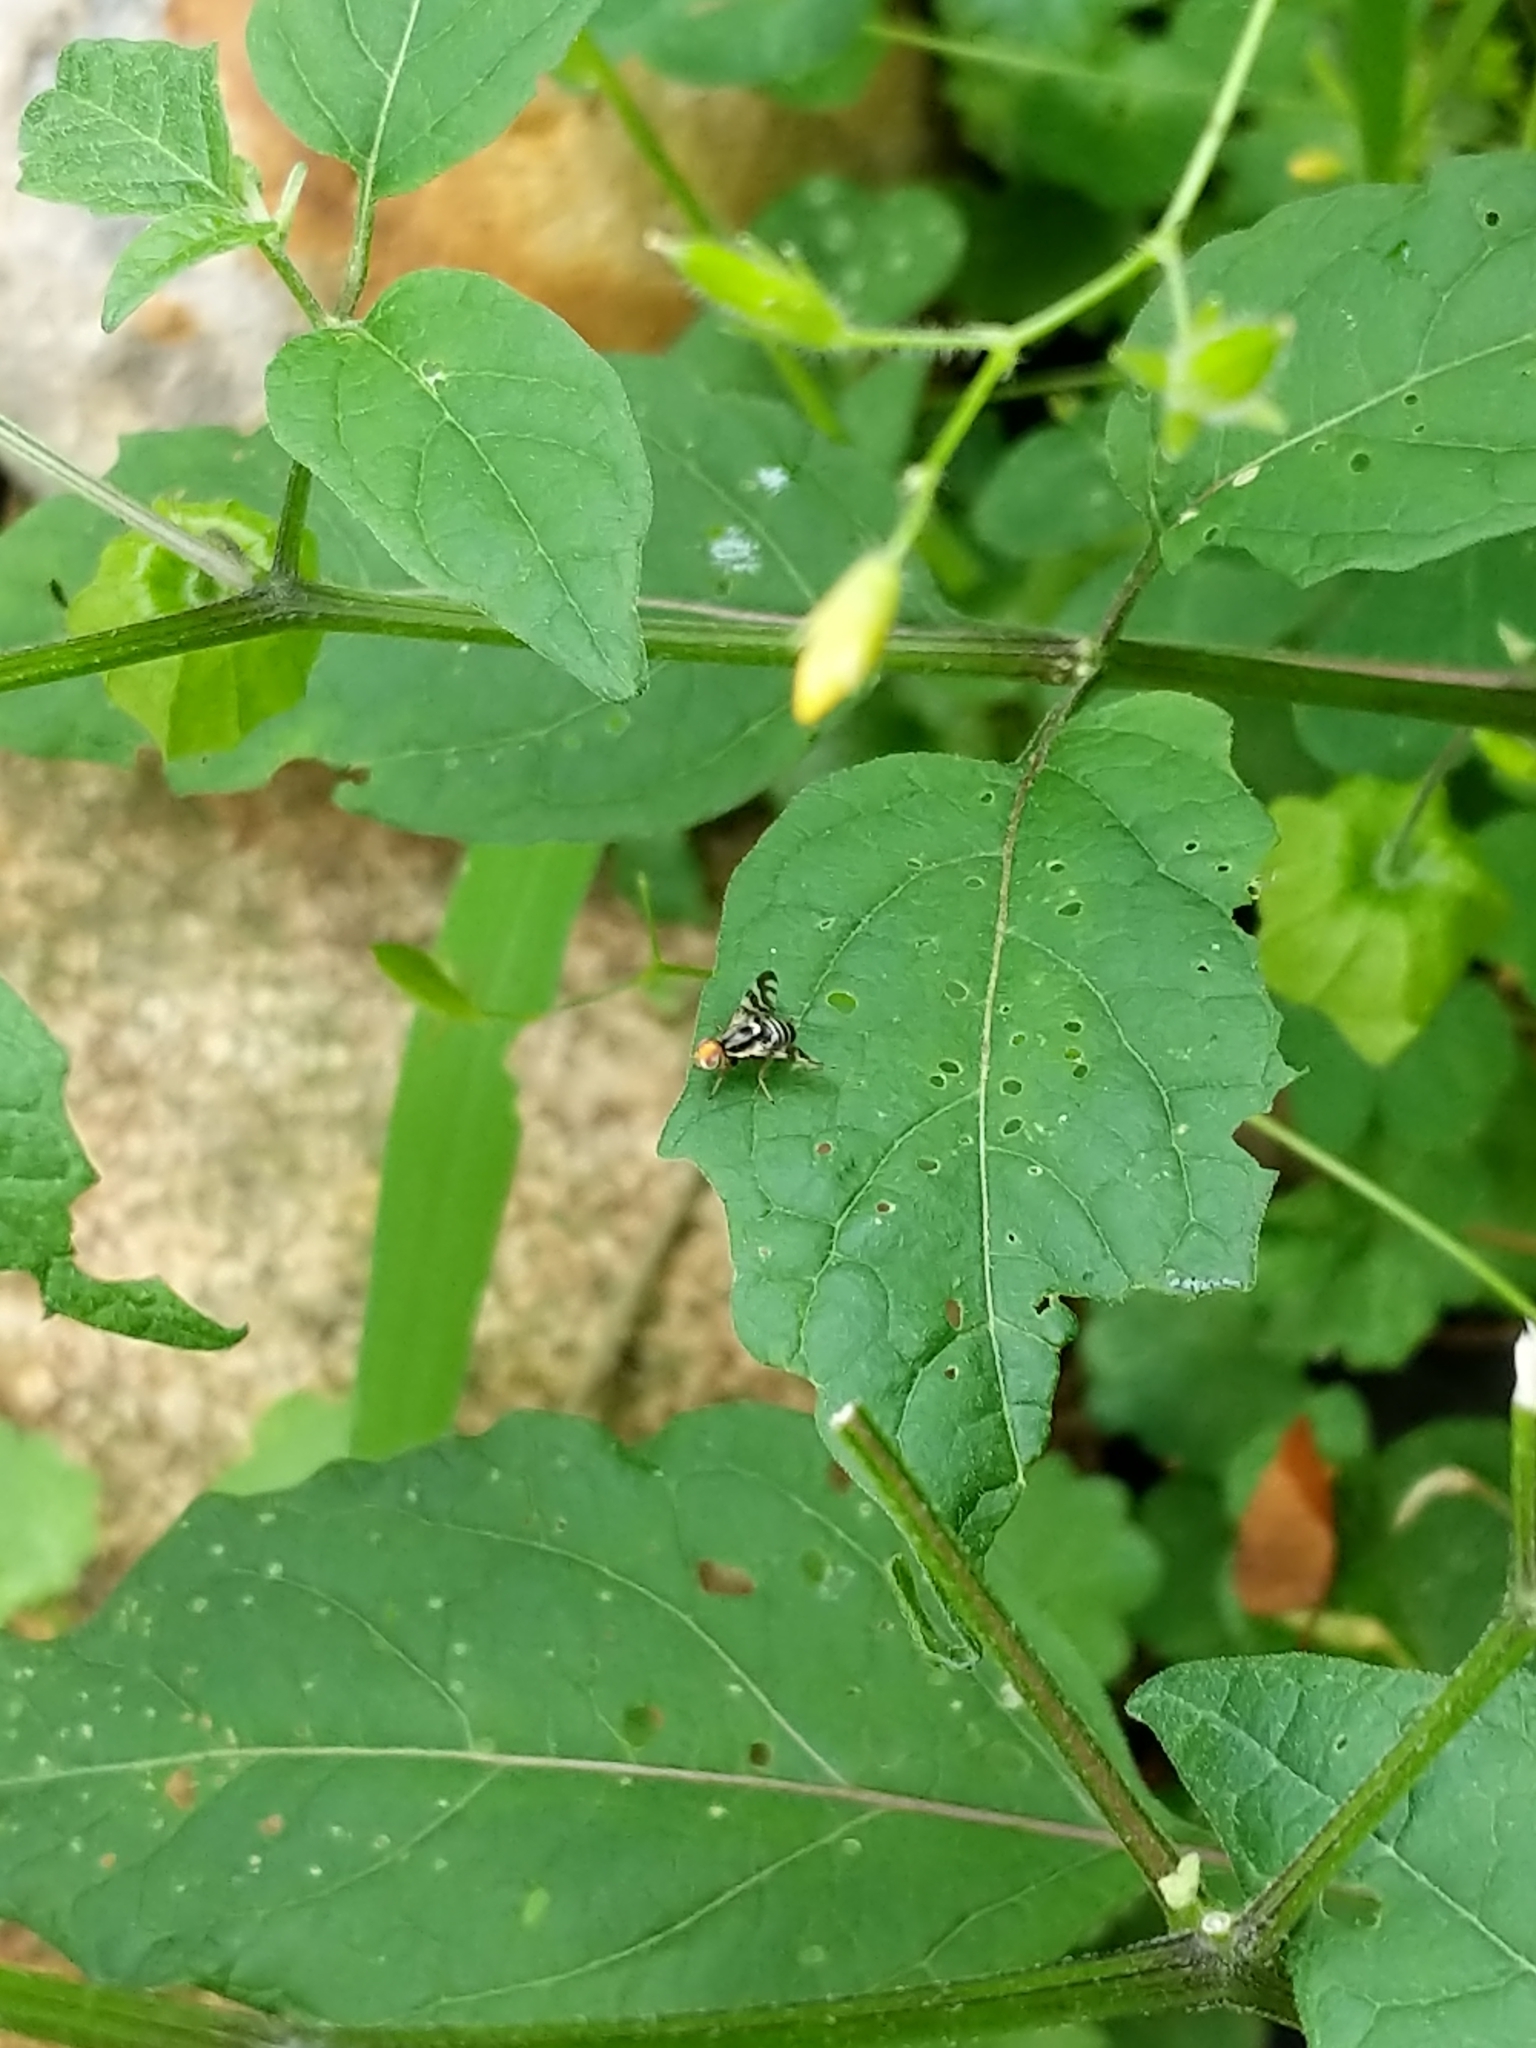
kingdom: Animalia
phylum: Arthropoda
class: Insecta
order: Diptera
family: Tephritidae
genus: Rhagoletis
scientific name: Rhagoletis striatella
